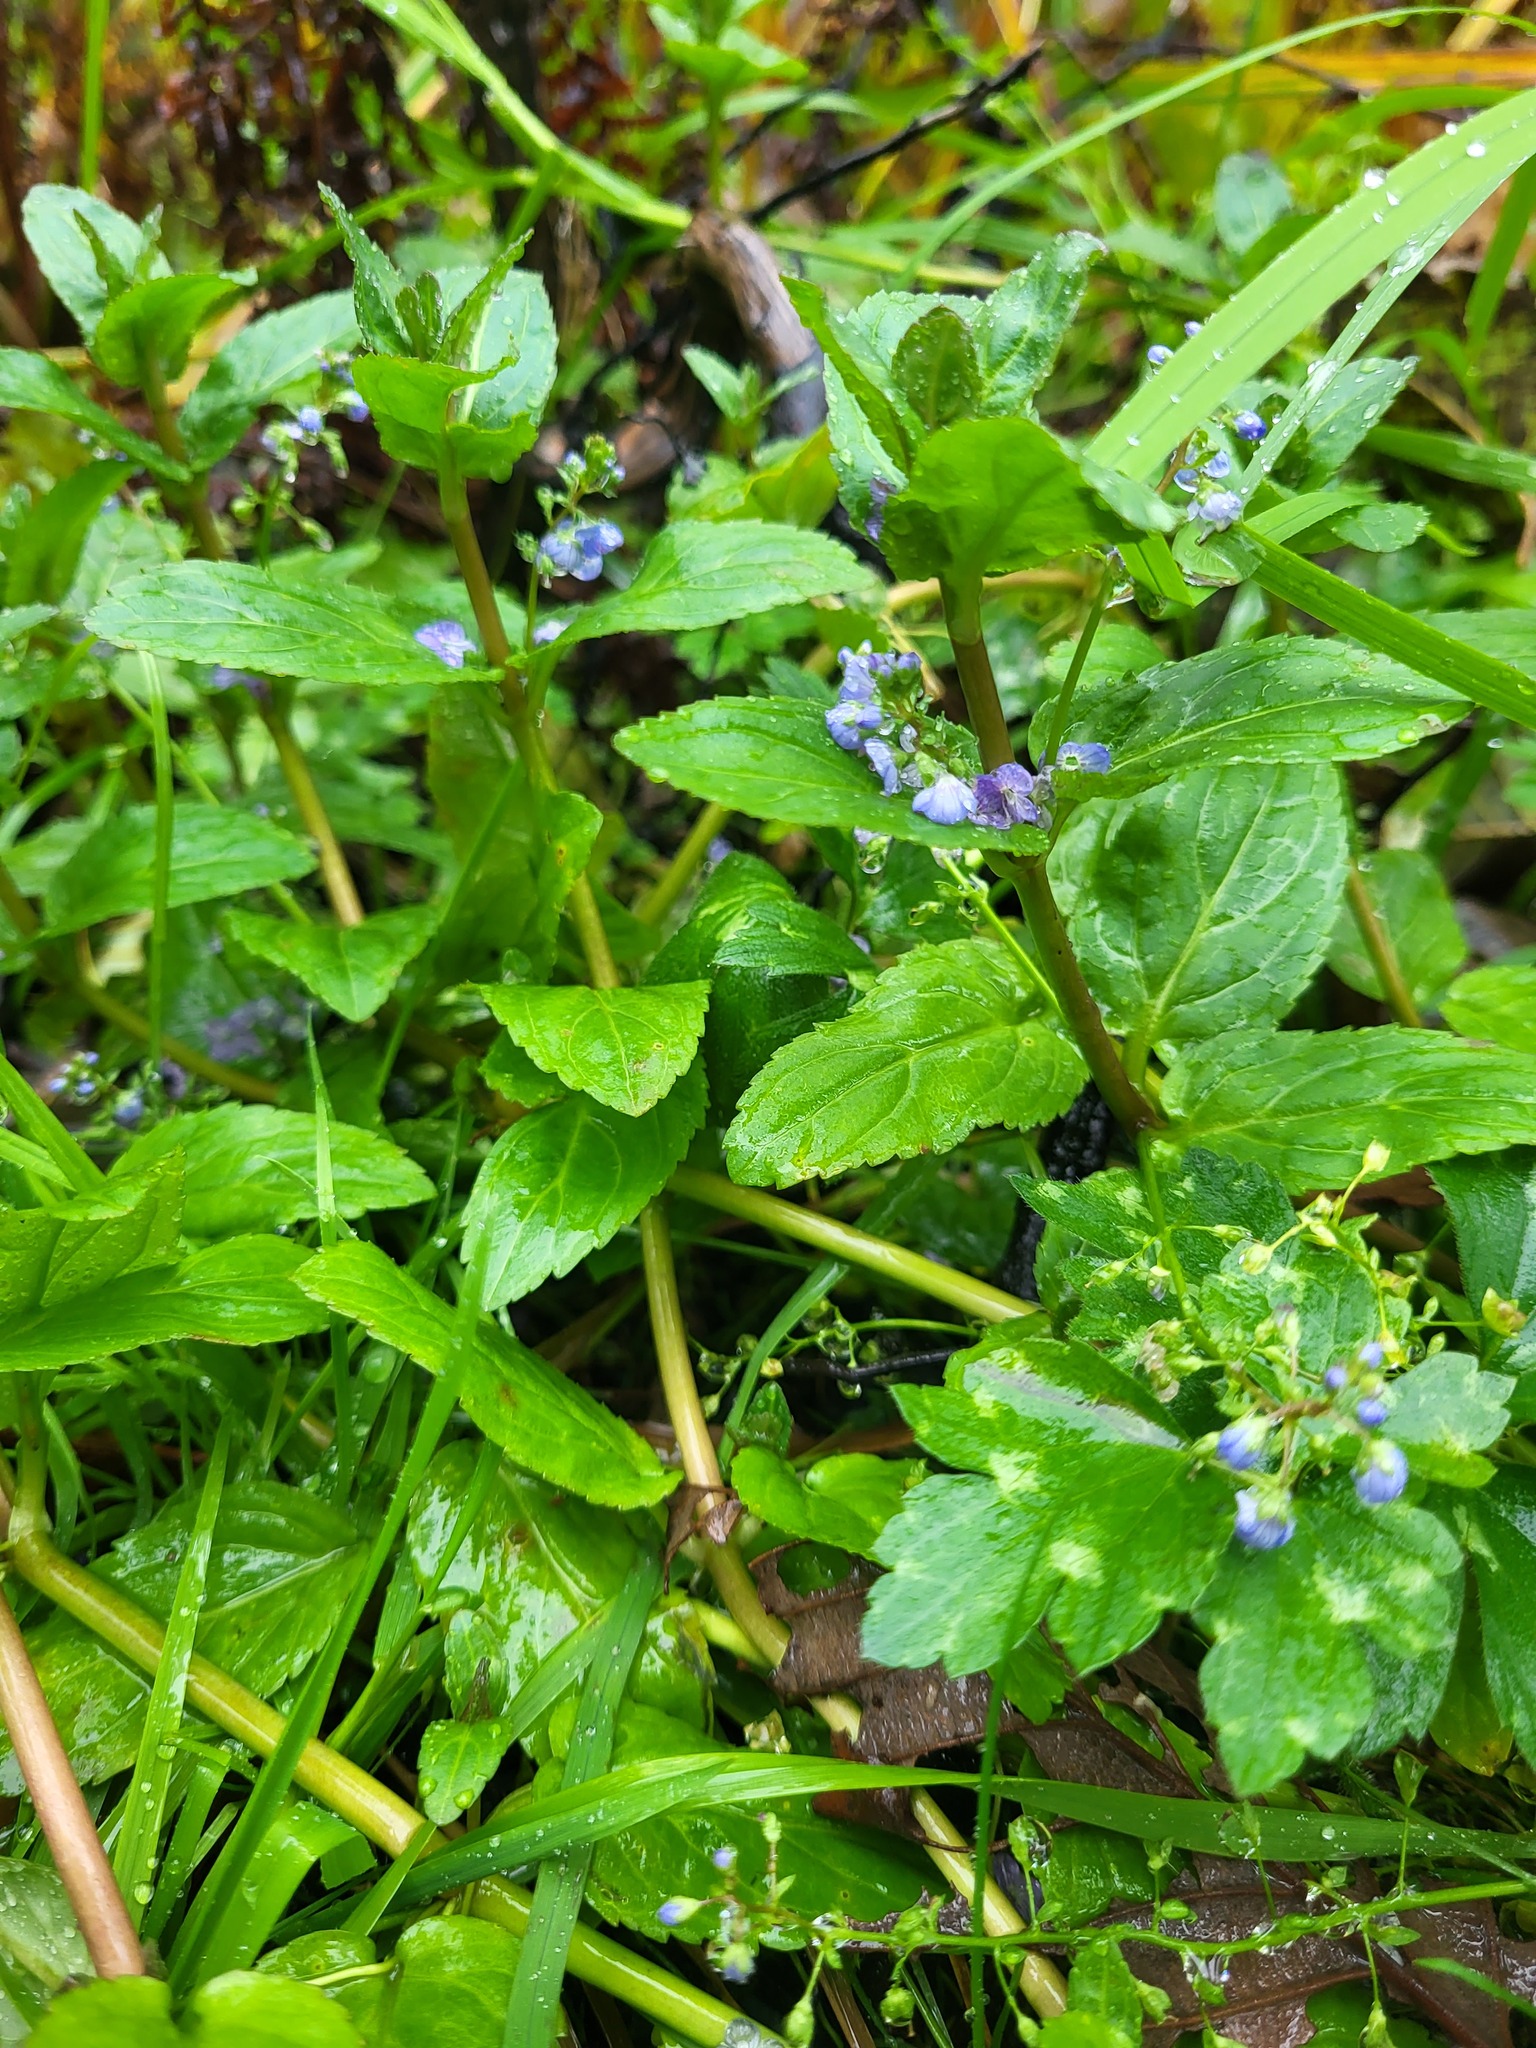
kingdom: Plantae
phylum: Tracheophyta
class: Magnoliopsida
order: Lamiales
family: Plantaginaceae
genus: Veronica
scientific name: Veronica americana
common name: American brooklime
